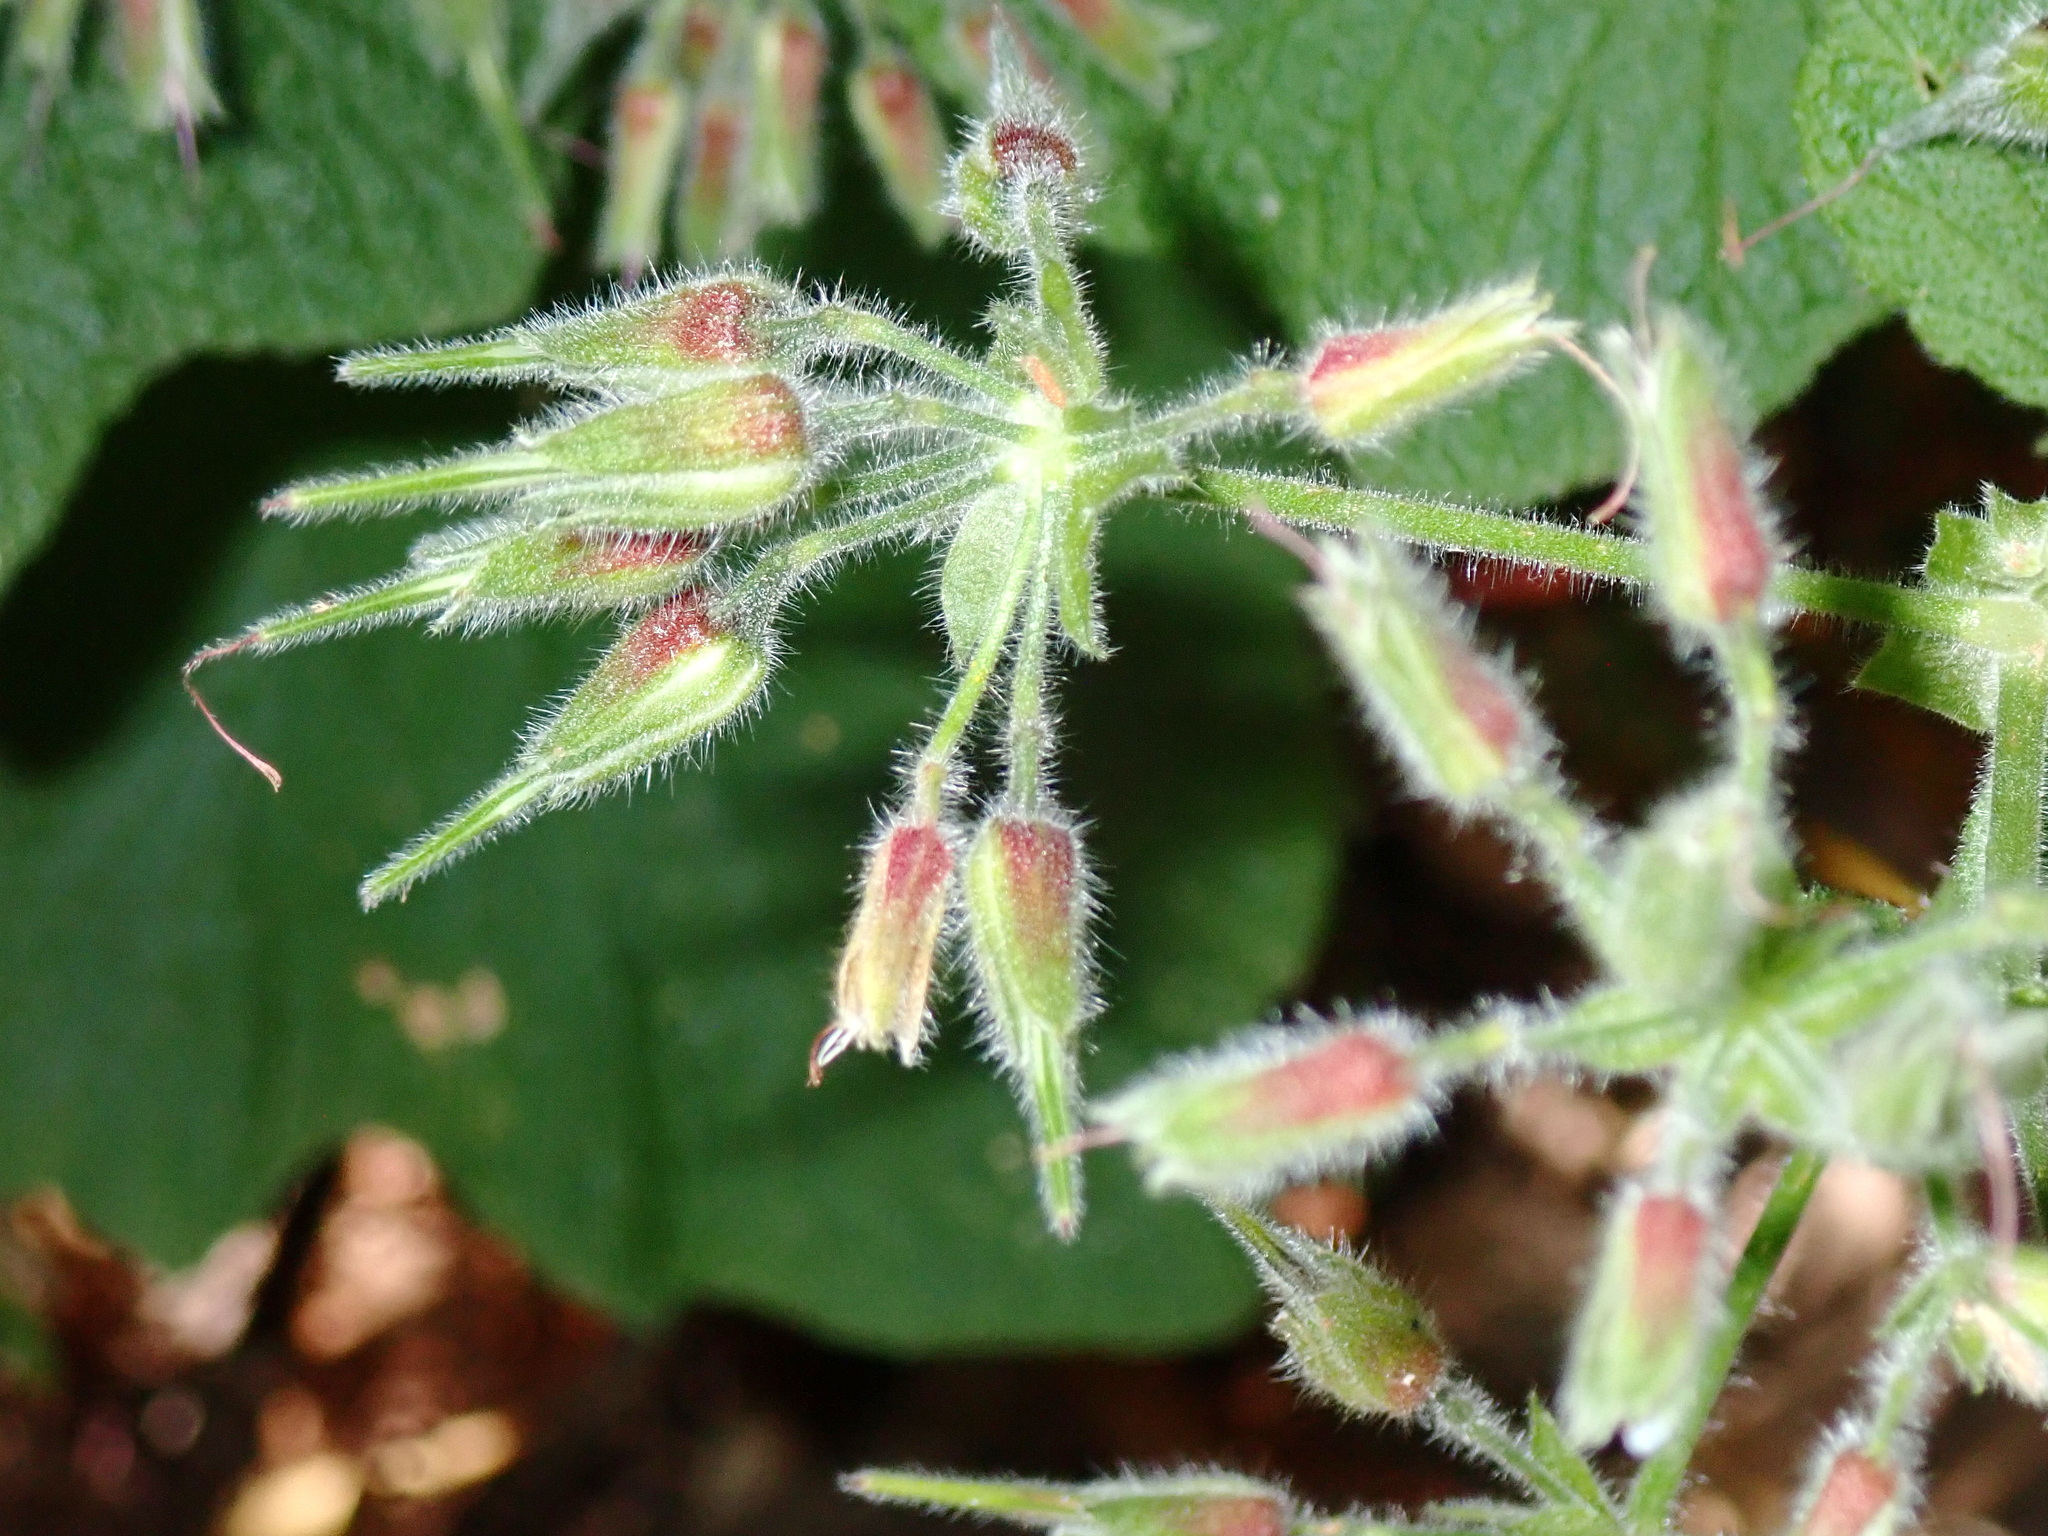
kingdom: Plantae
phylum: Tracheophyta
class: Magnoliopsida
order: Geraniales
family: Geraniaceae
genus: Pelargonium
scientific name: Pelargonium papilionaceum
